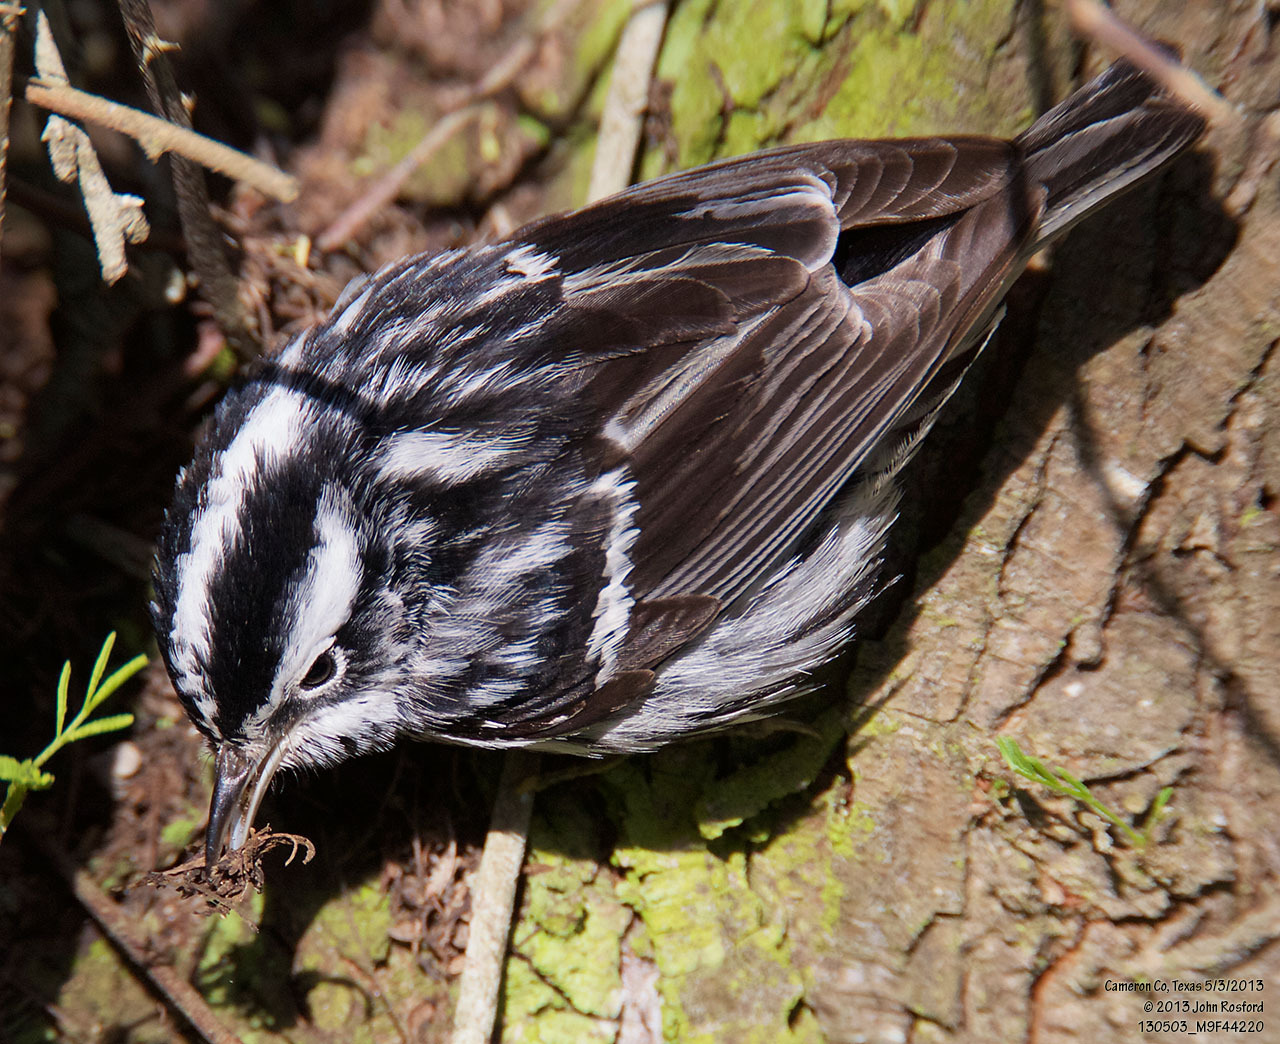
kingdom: Animalia
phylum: Chordata
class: Aves
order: Passeriformes
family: Parulidae
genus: Mniotilta
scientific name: Mniotilta varia
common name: Black-and-white warbler
